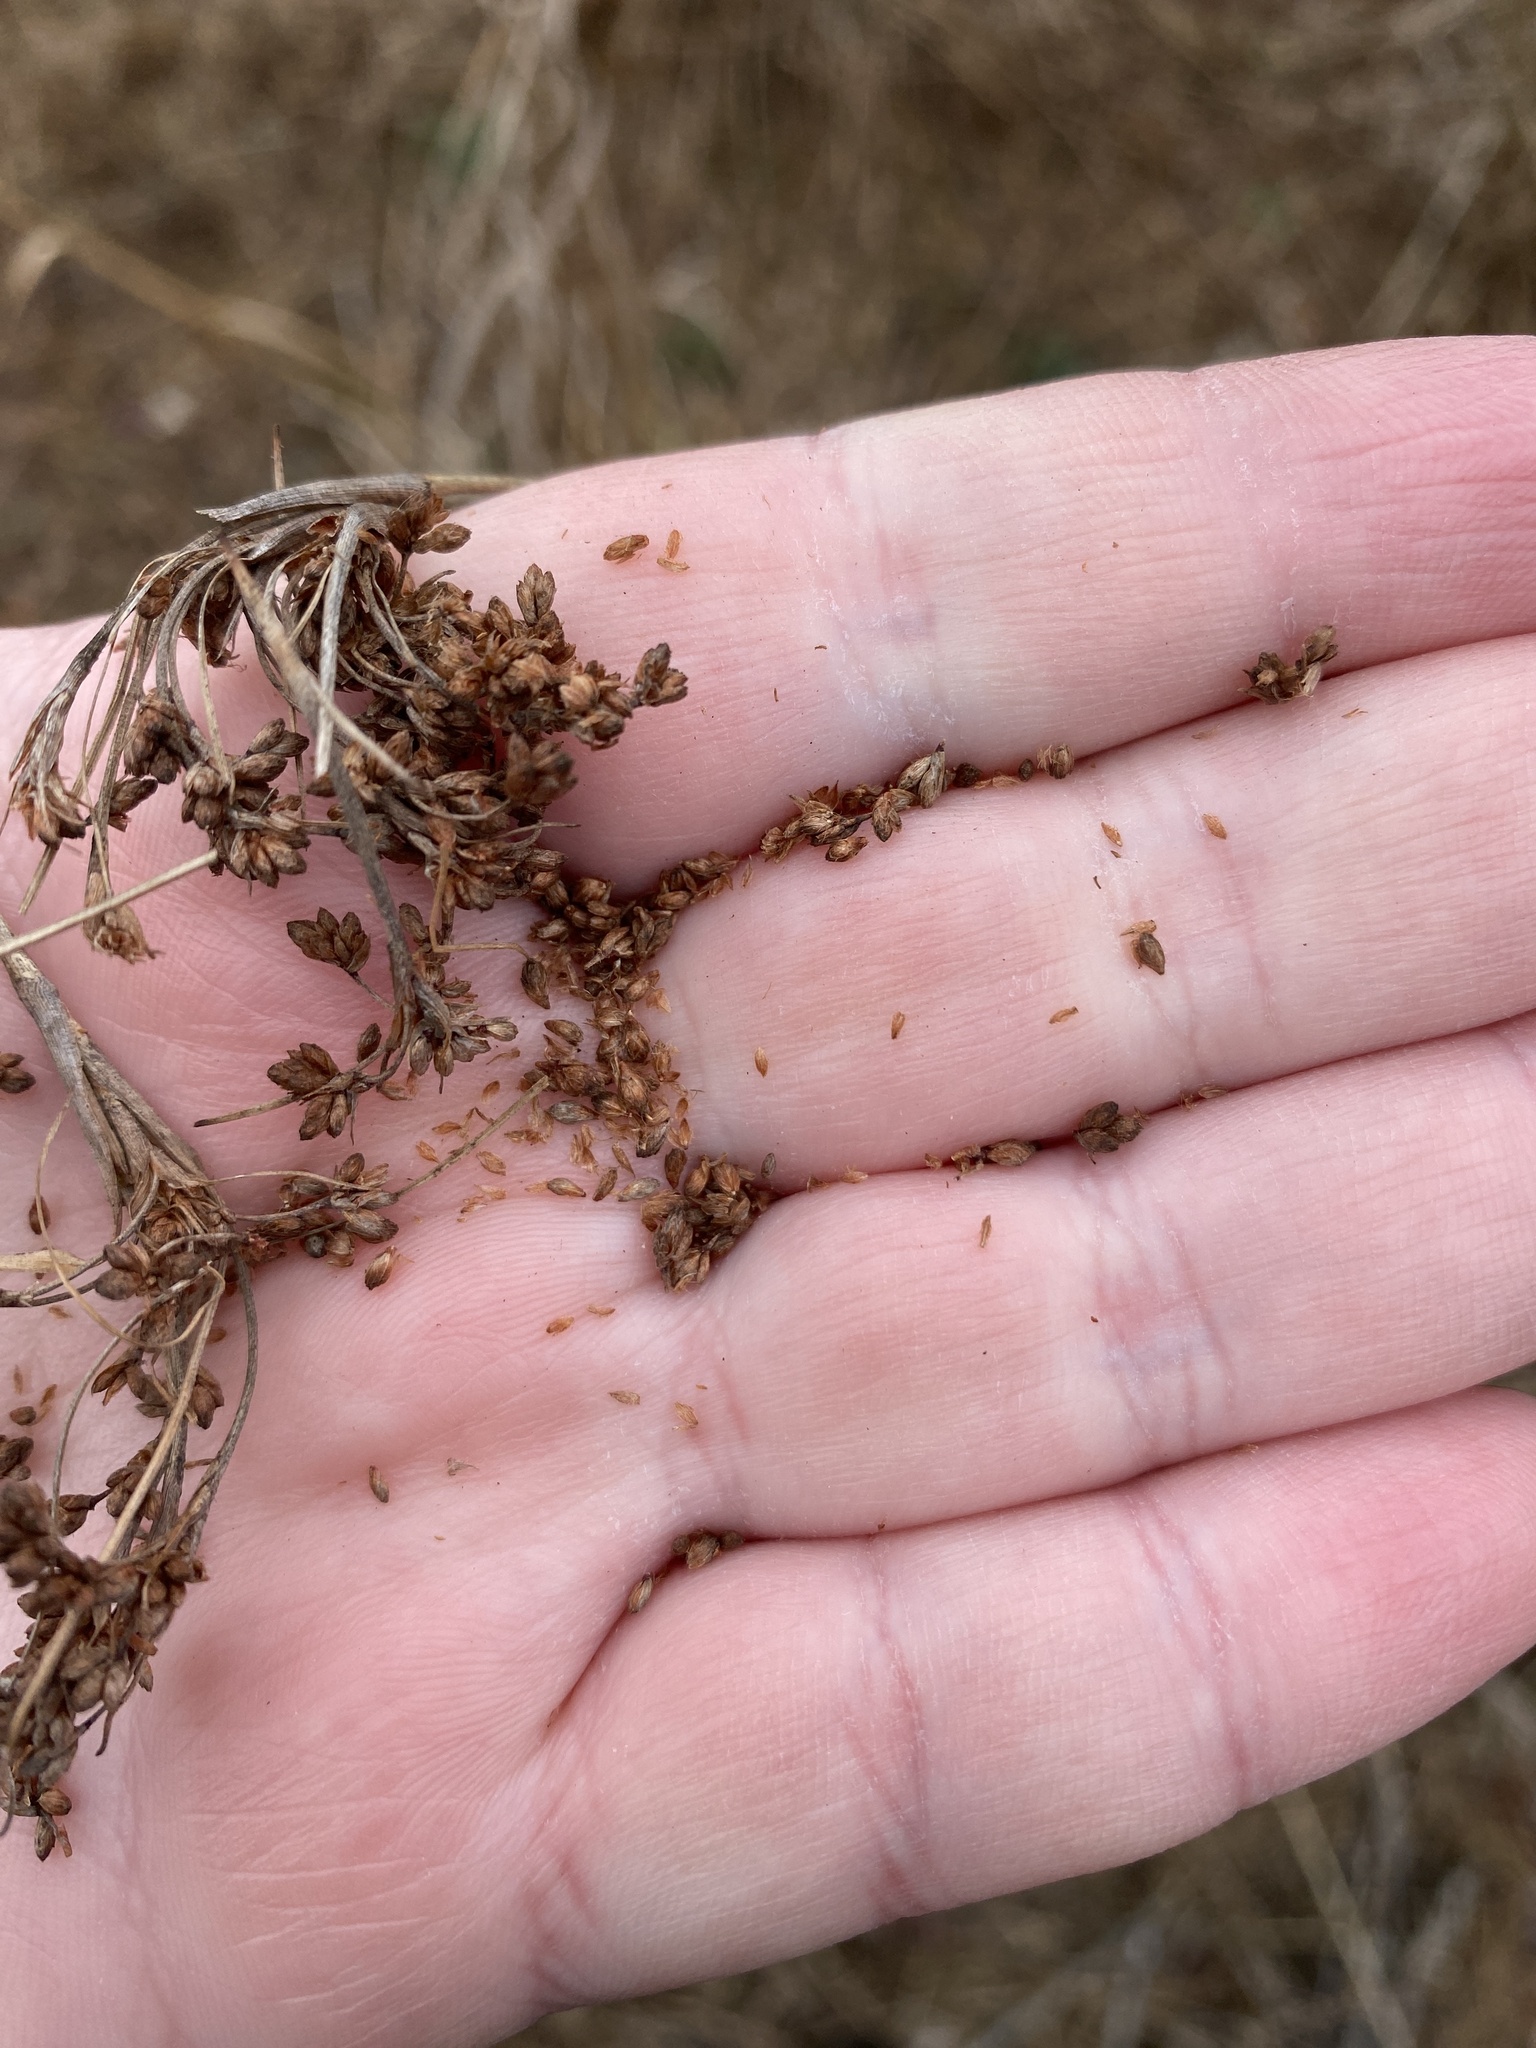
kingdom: Plantae
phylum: Tracheophyta
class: Liliopsida
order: Poales
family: Cyperaceae
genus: Scirpus
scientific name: Scirpus cyperinus
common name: Black-sheathed bulrush
